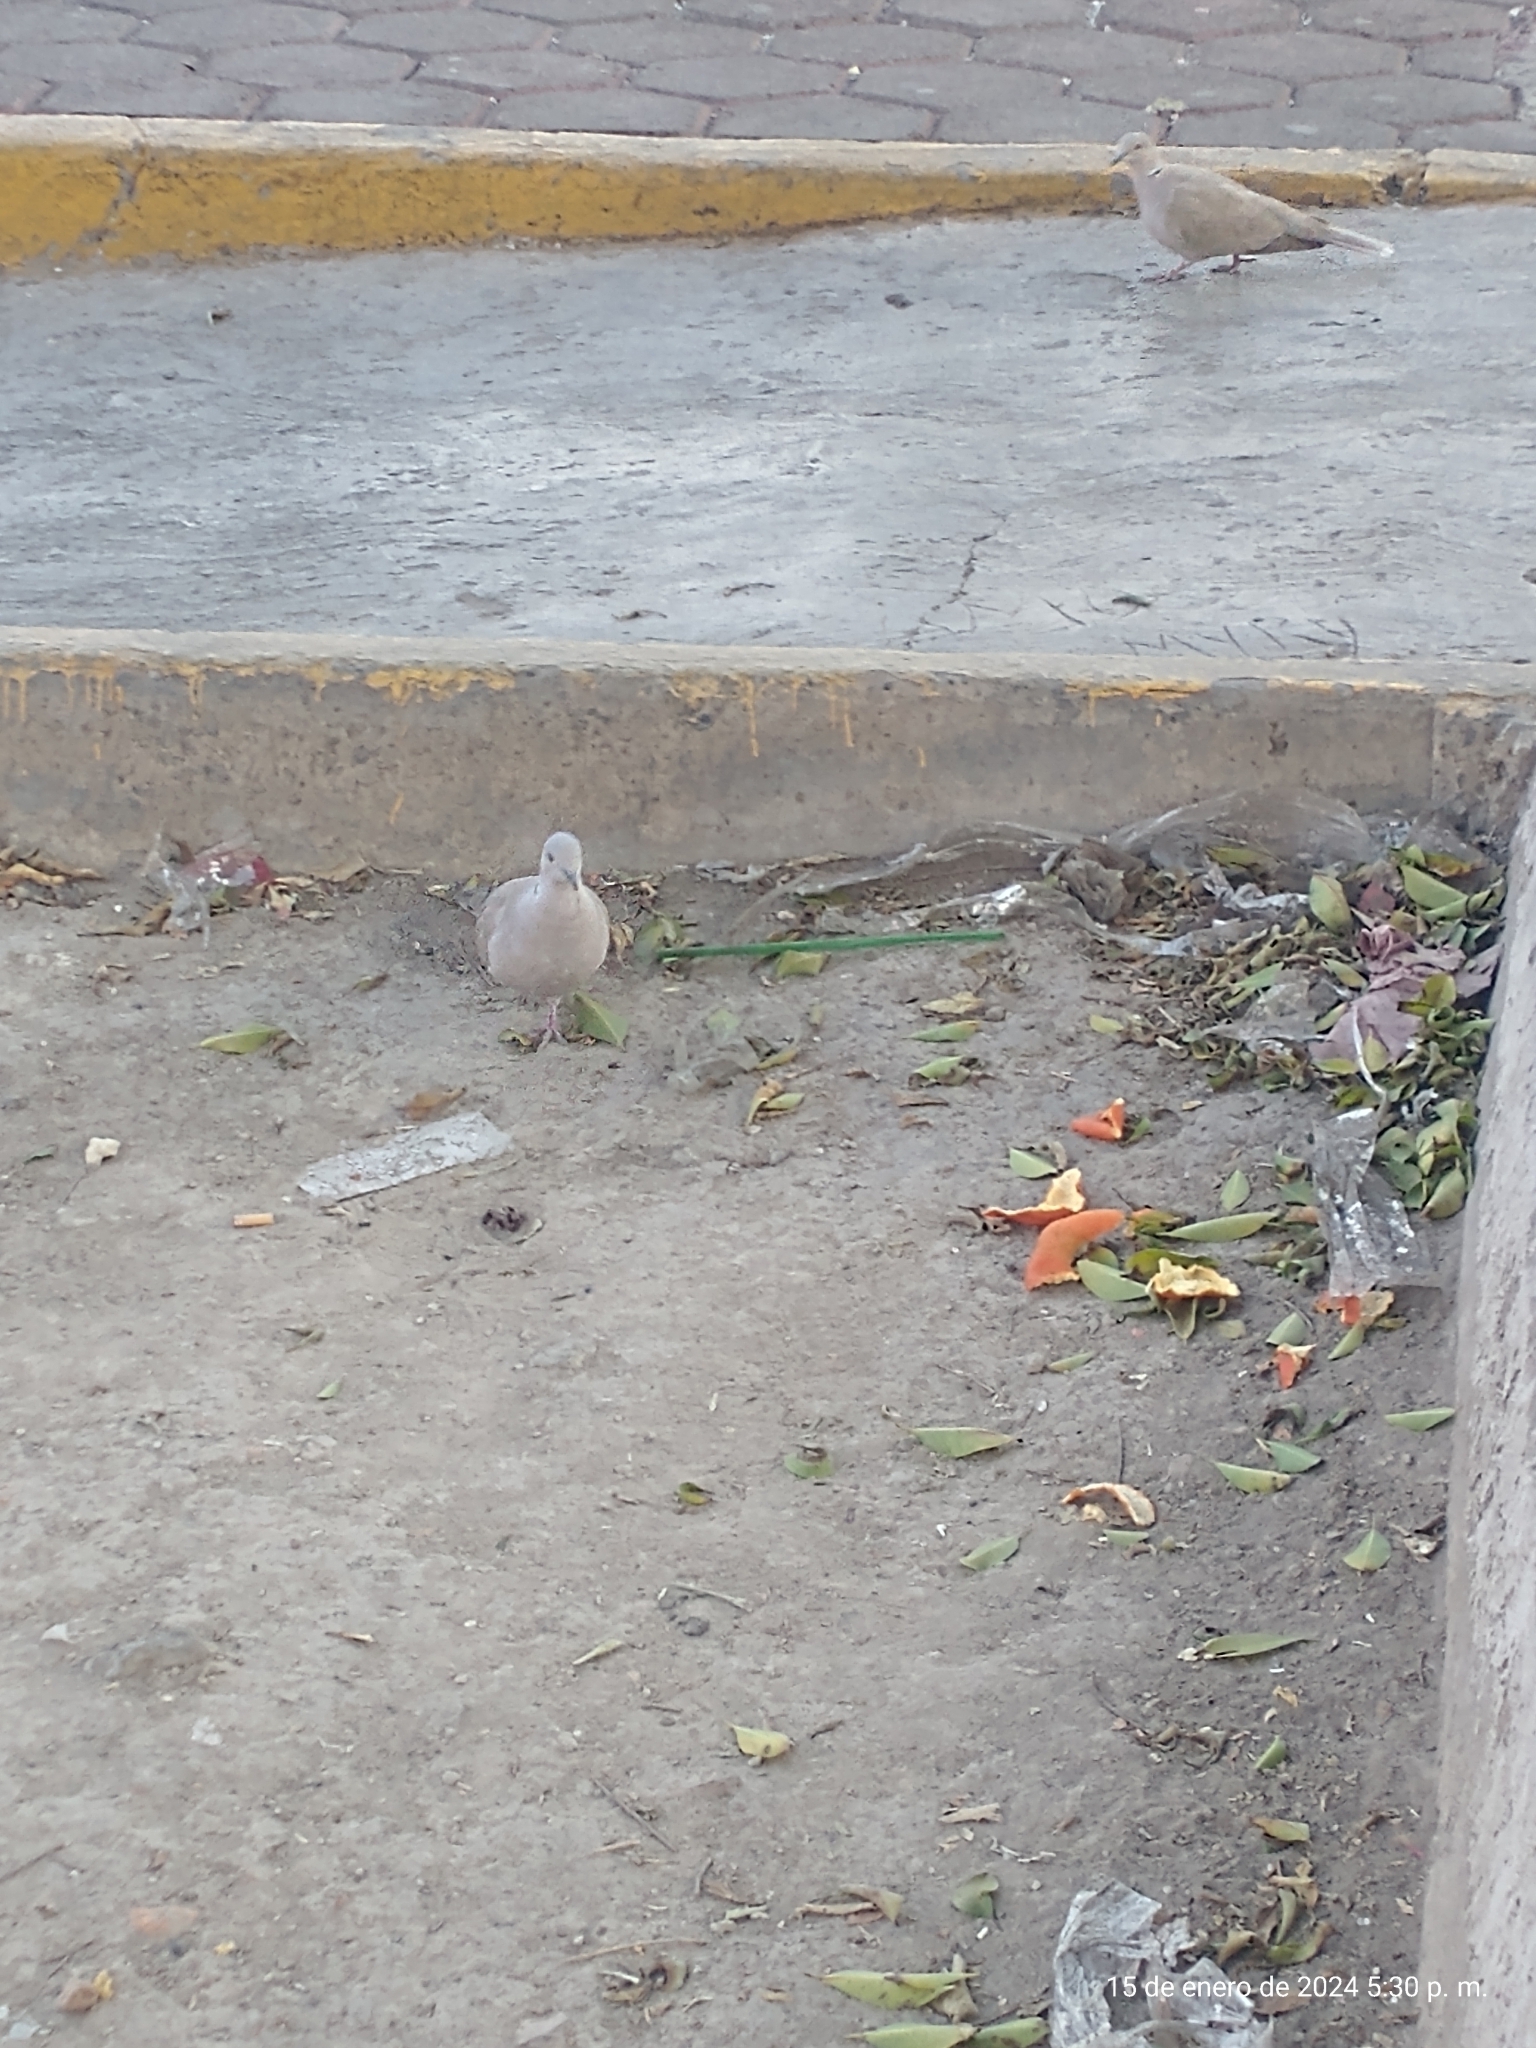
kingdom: Animalia
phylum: Chordata
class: Aves
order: Columbiformes
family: Columbidae
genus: Streptopelia
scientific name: Streptopelia decaocto
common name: Eurasian collared dove
